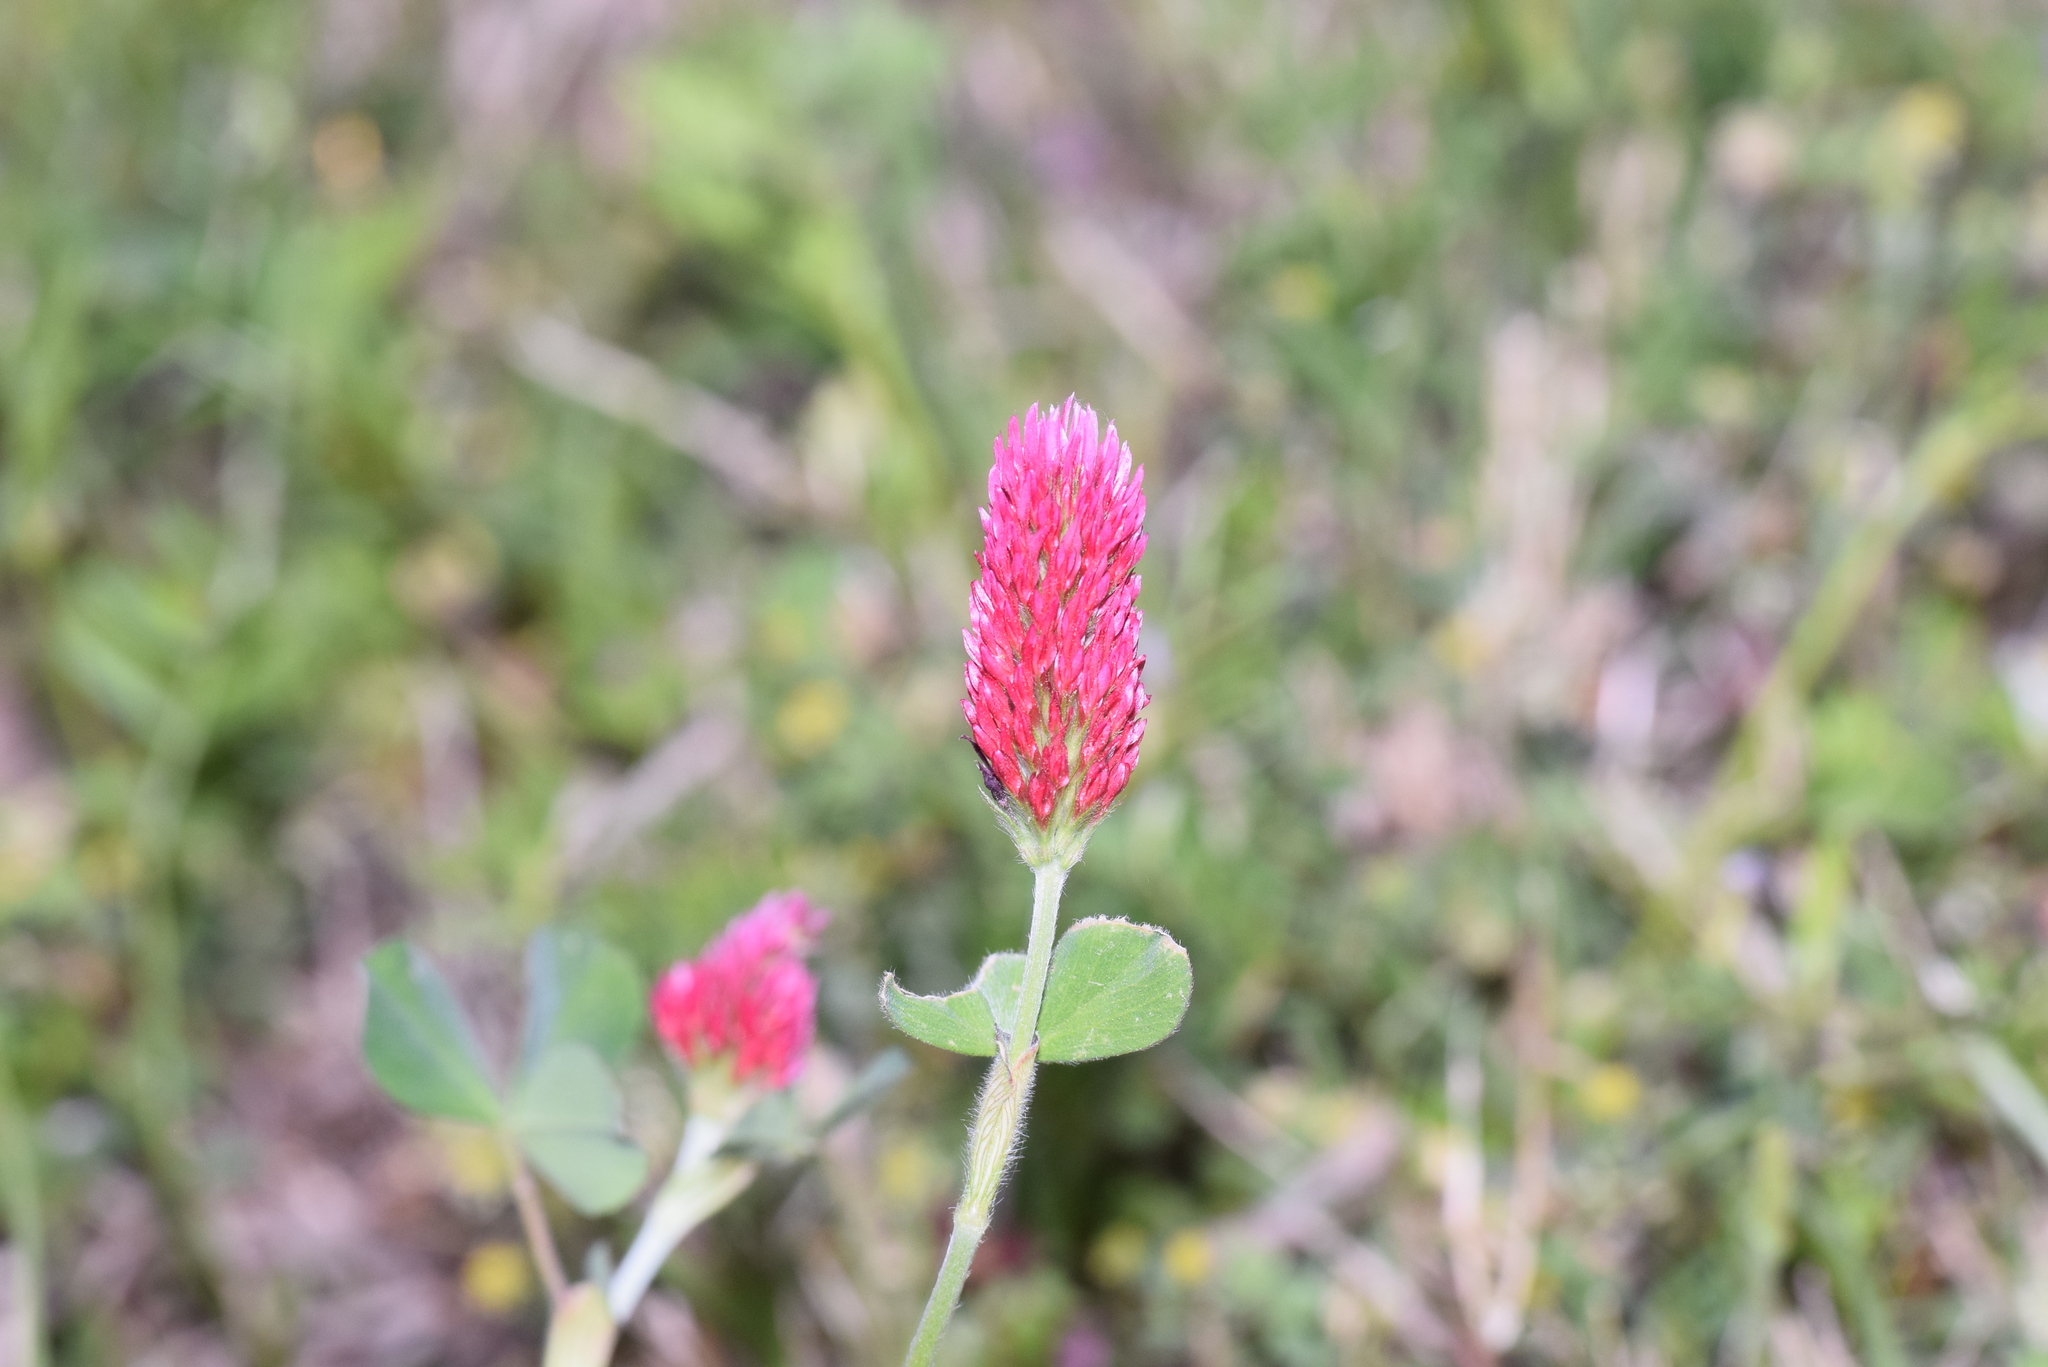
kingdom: Plantae
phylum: Tracheophyta
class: Magnoliopsida
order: Fabales
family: Fabaceae
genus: Trifolium
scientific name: Trifolium incarnatum
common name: Crimson clover
